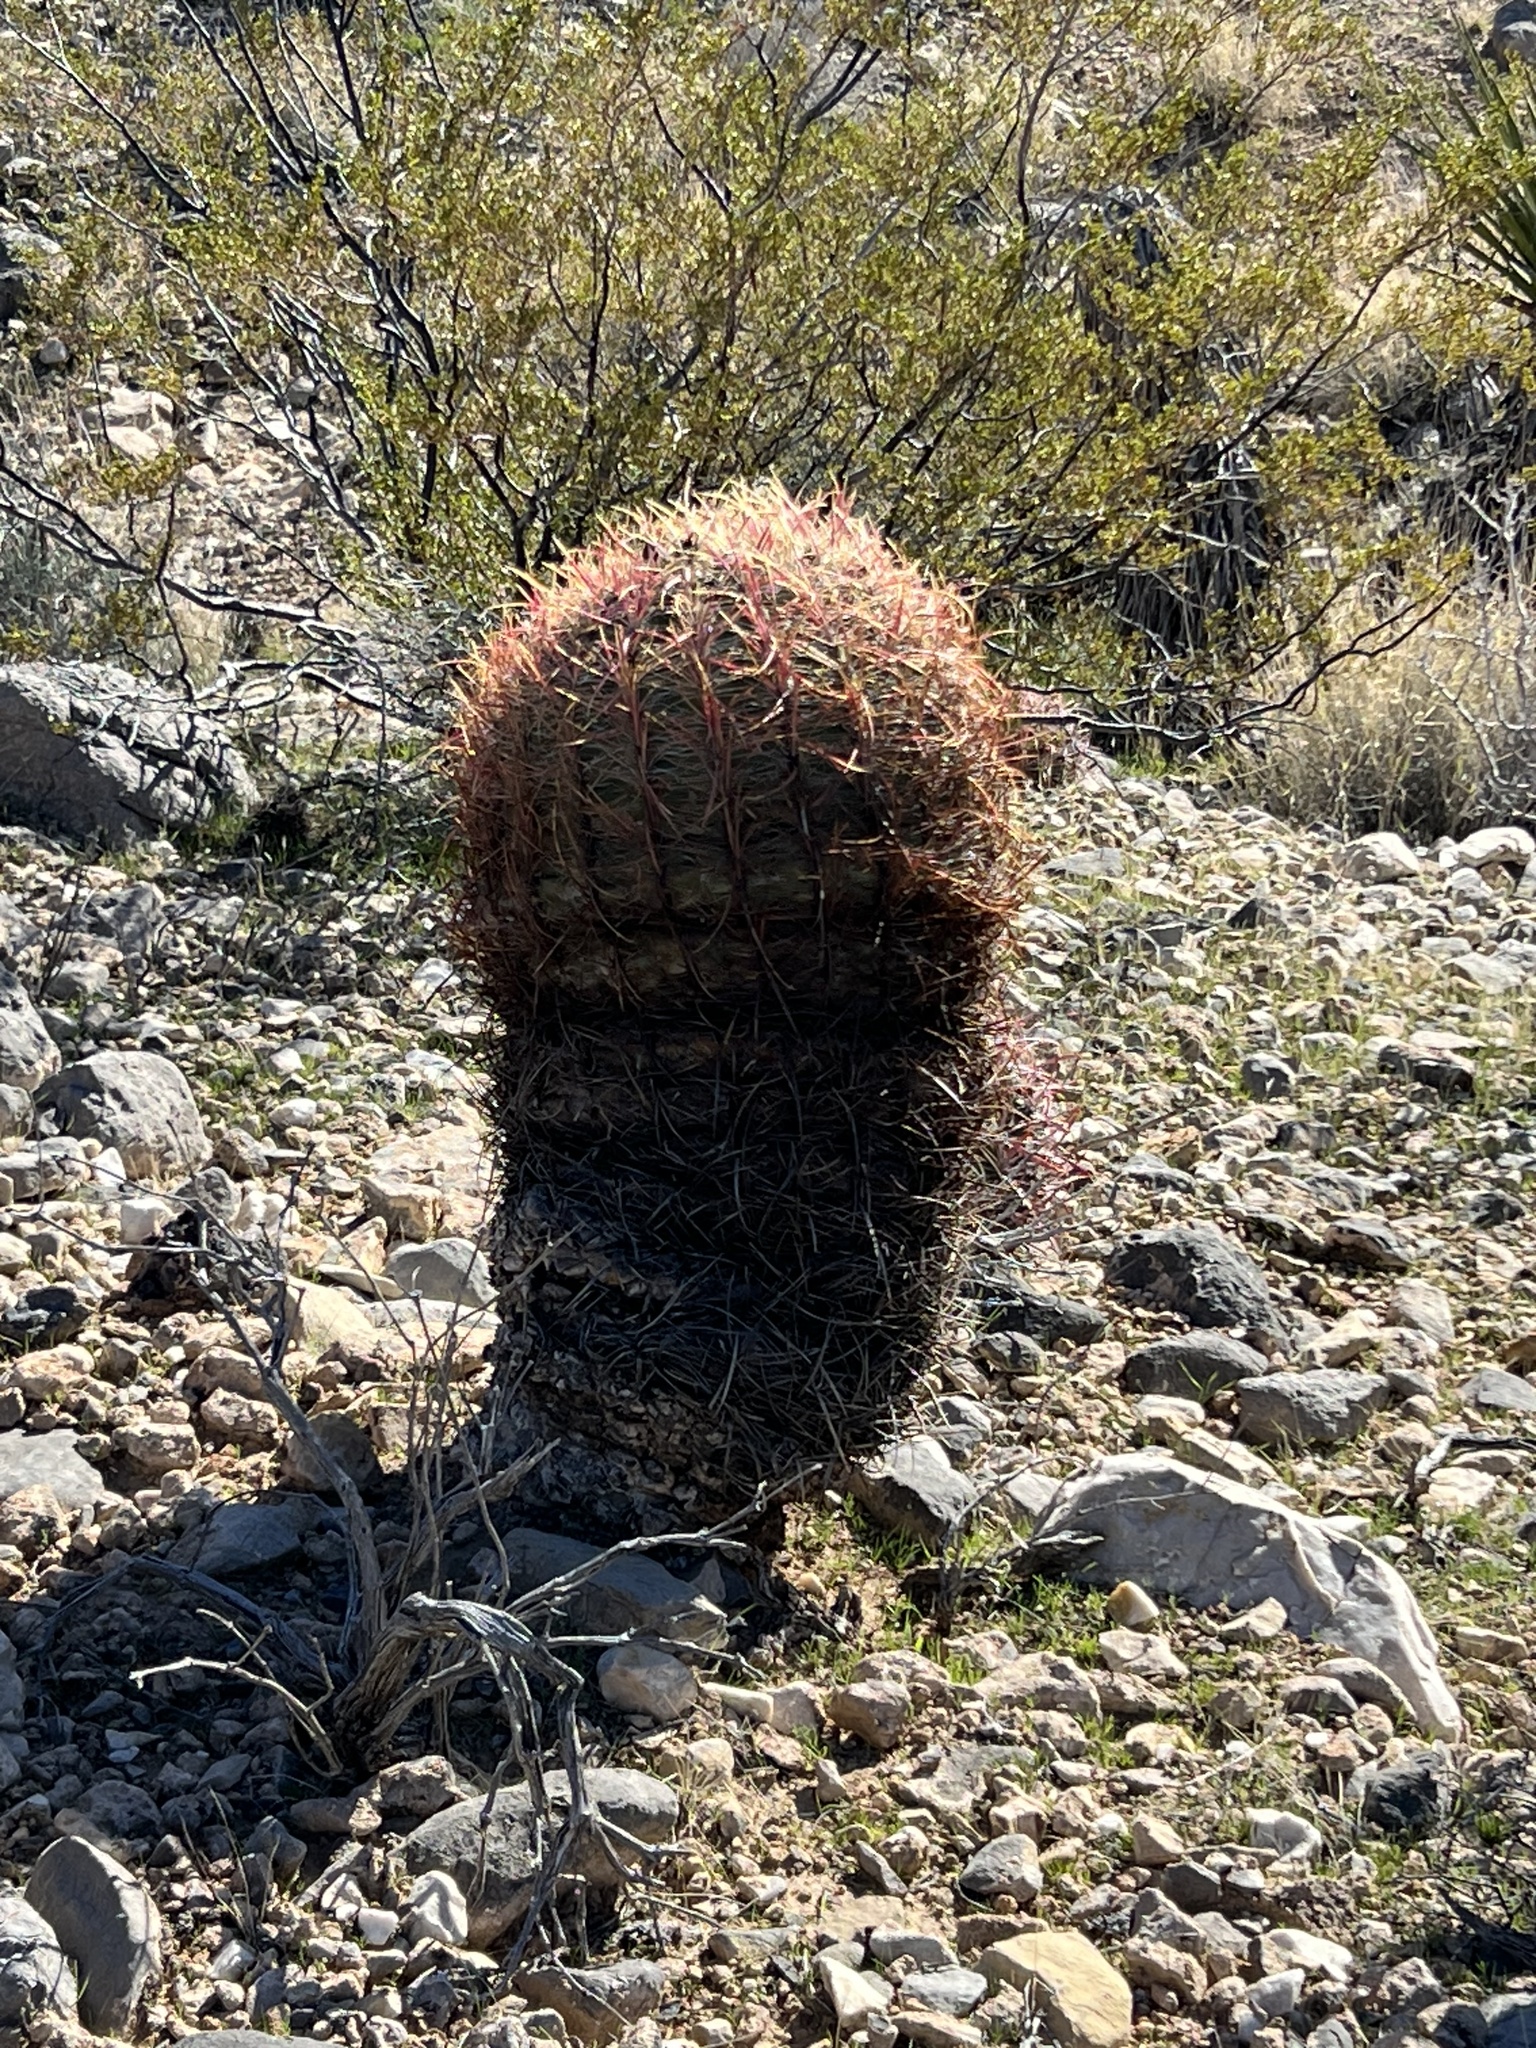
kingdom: Plantae
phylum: Tracheophyta
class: Magnoliopsida
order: Caryophyllales
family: Cactaceae
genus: Ferocactus
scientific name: Ferocactus cylindraceus
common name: California barrel cactus
